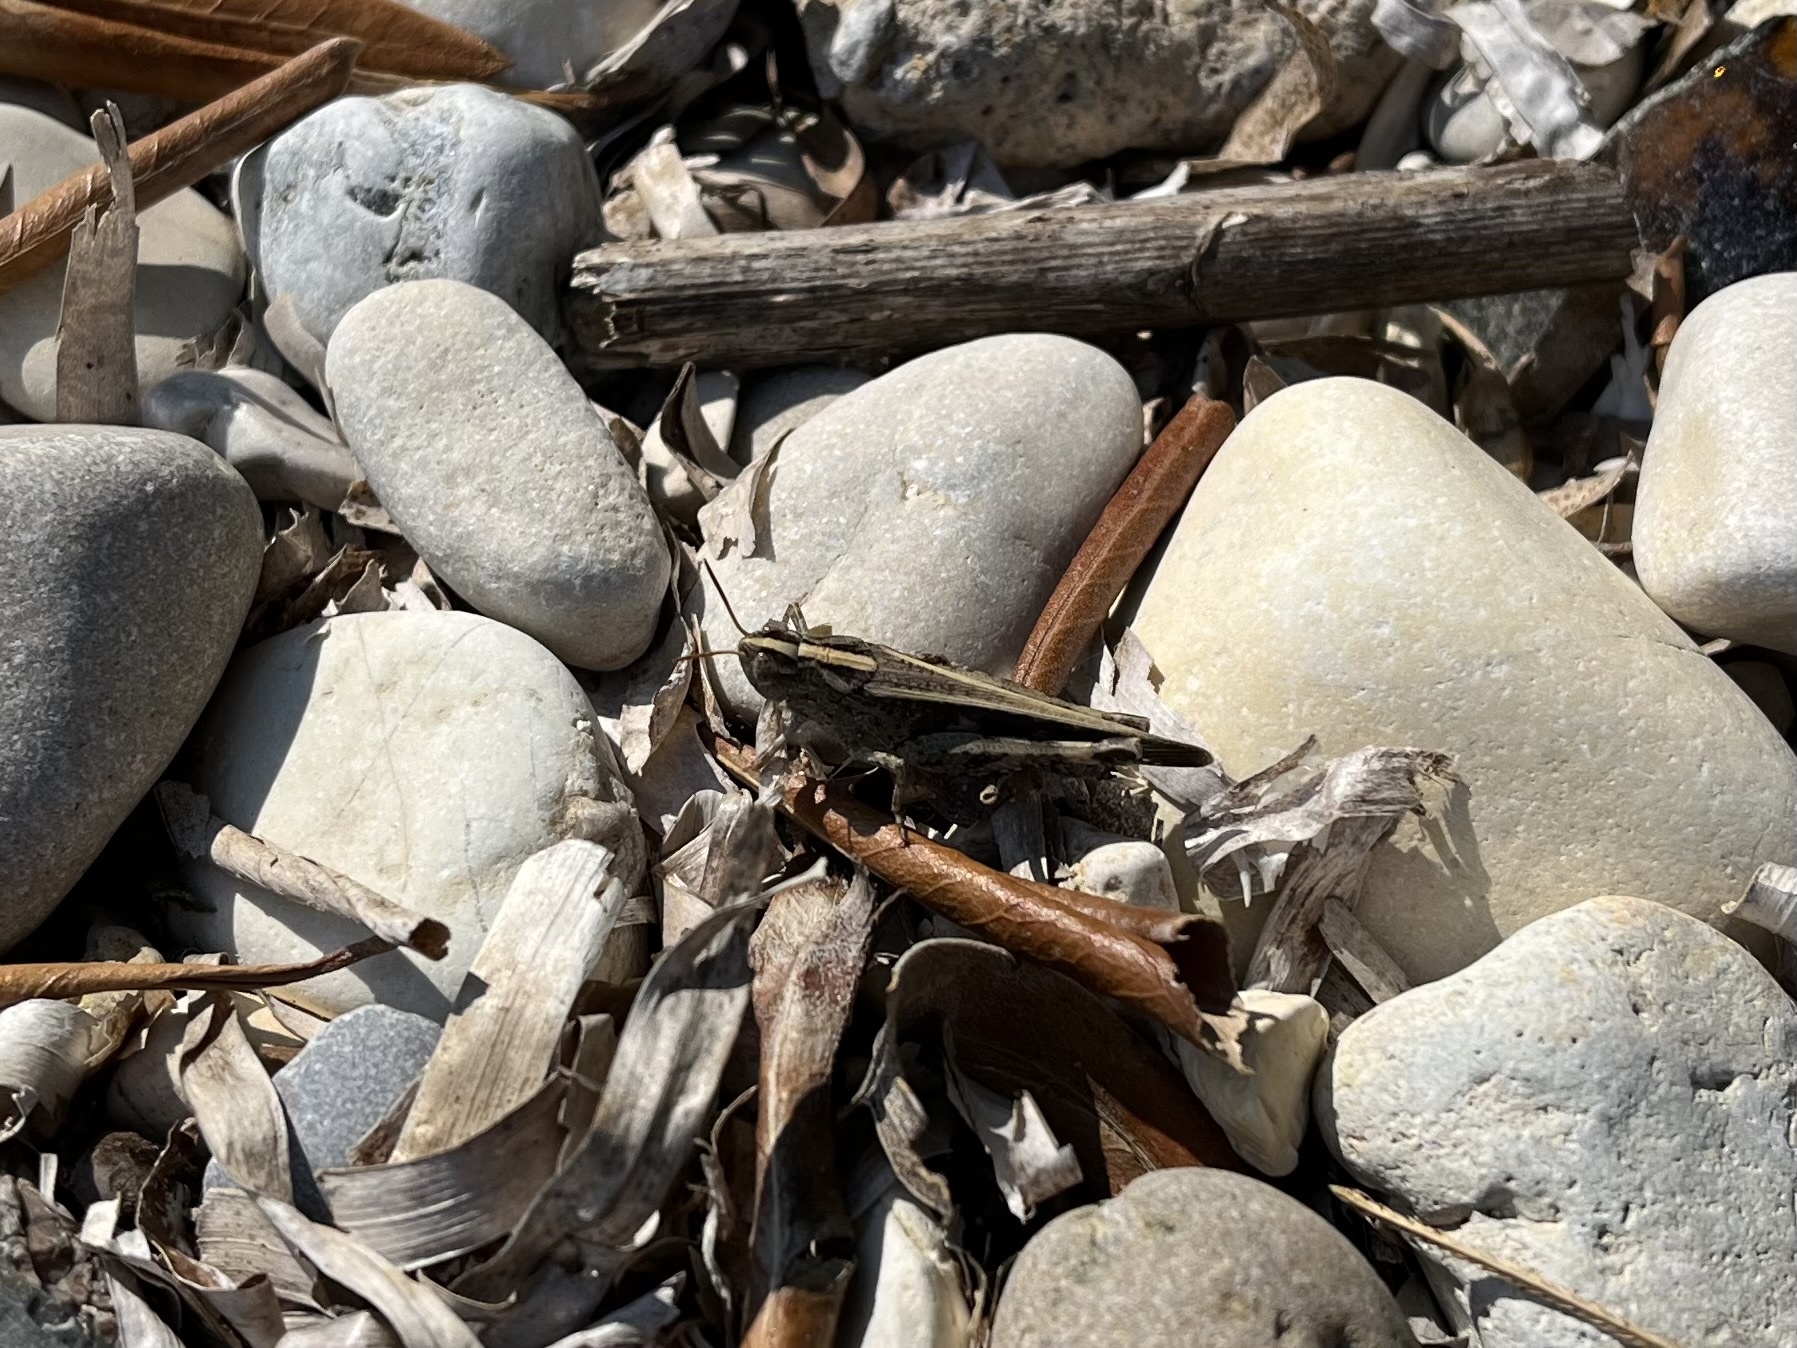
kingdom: Animalia
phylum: Arthropoda
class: Insecta
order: Orthoptera
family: Acrididae
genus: Aiolopus
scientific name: Aiolopus strepens
